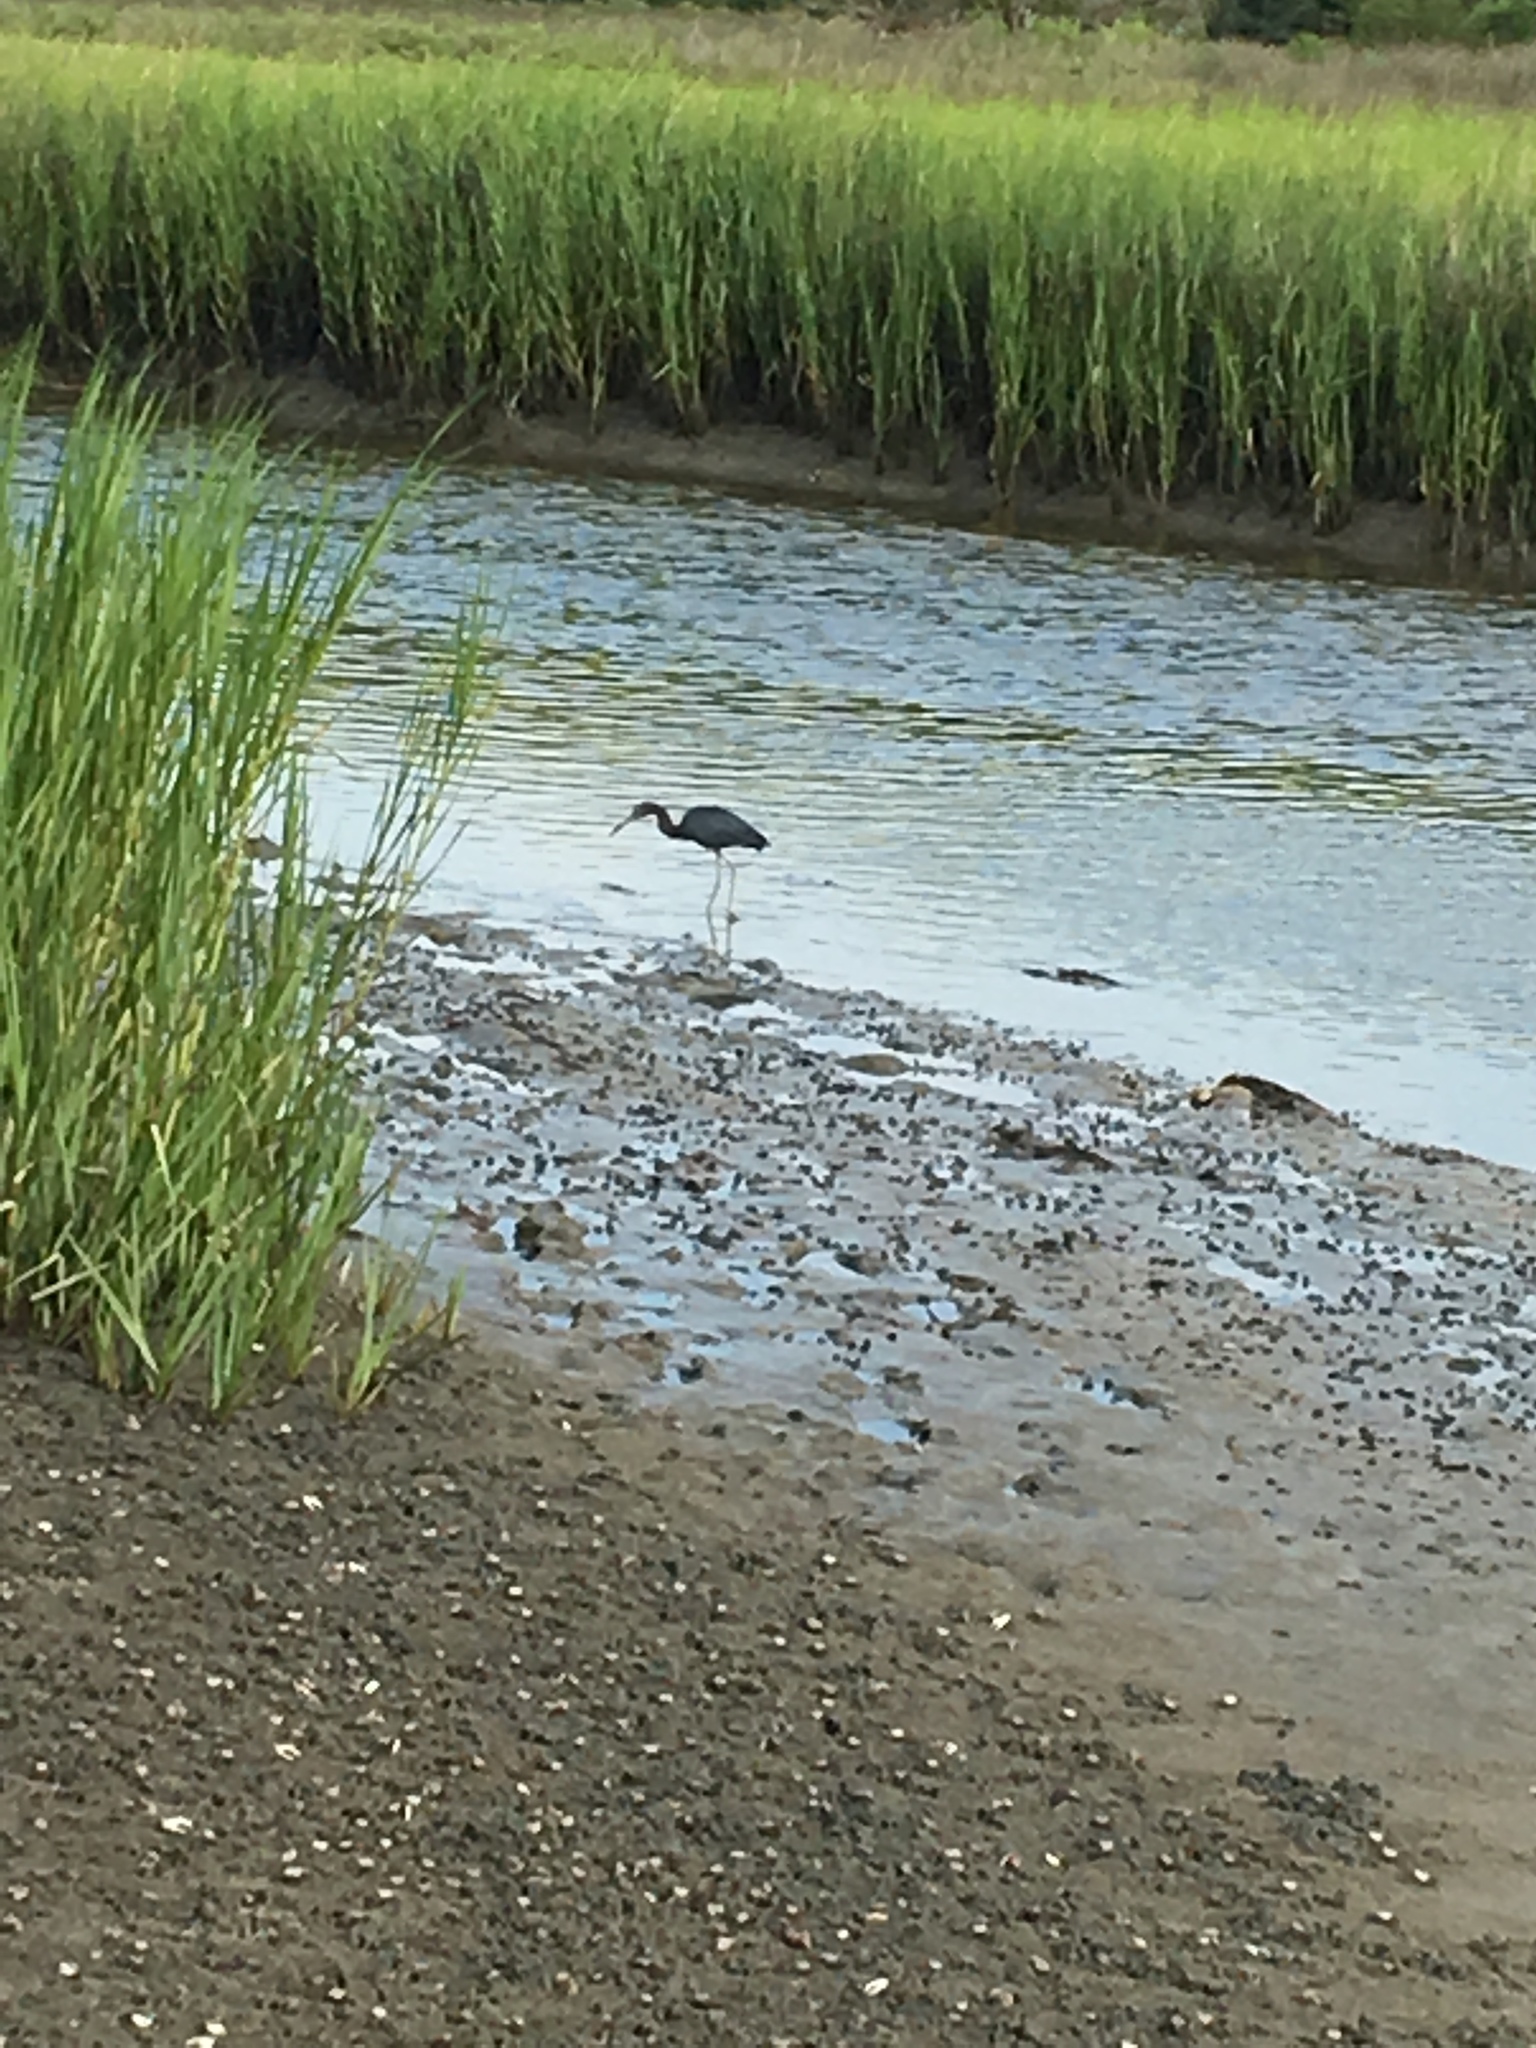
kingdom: Animalia
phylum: Chordata
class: Aves
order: Pelecaniformes
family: Ardeidae
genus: Egretta
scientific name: Egretta caerulea
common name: Little blue heron
